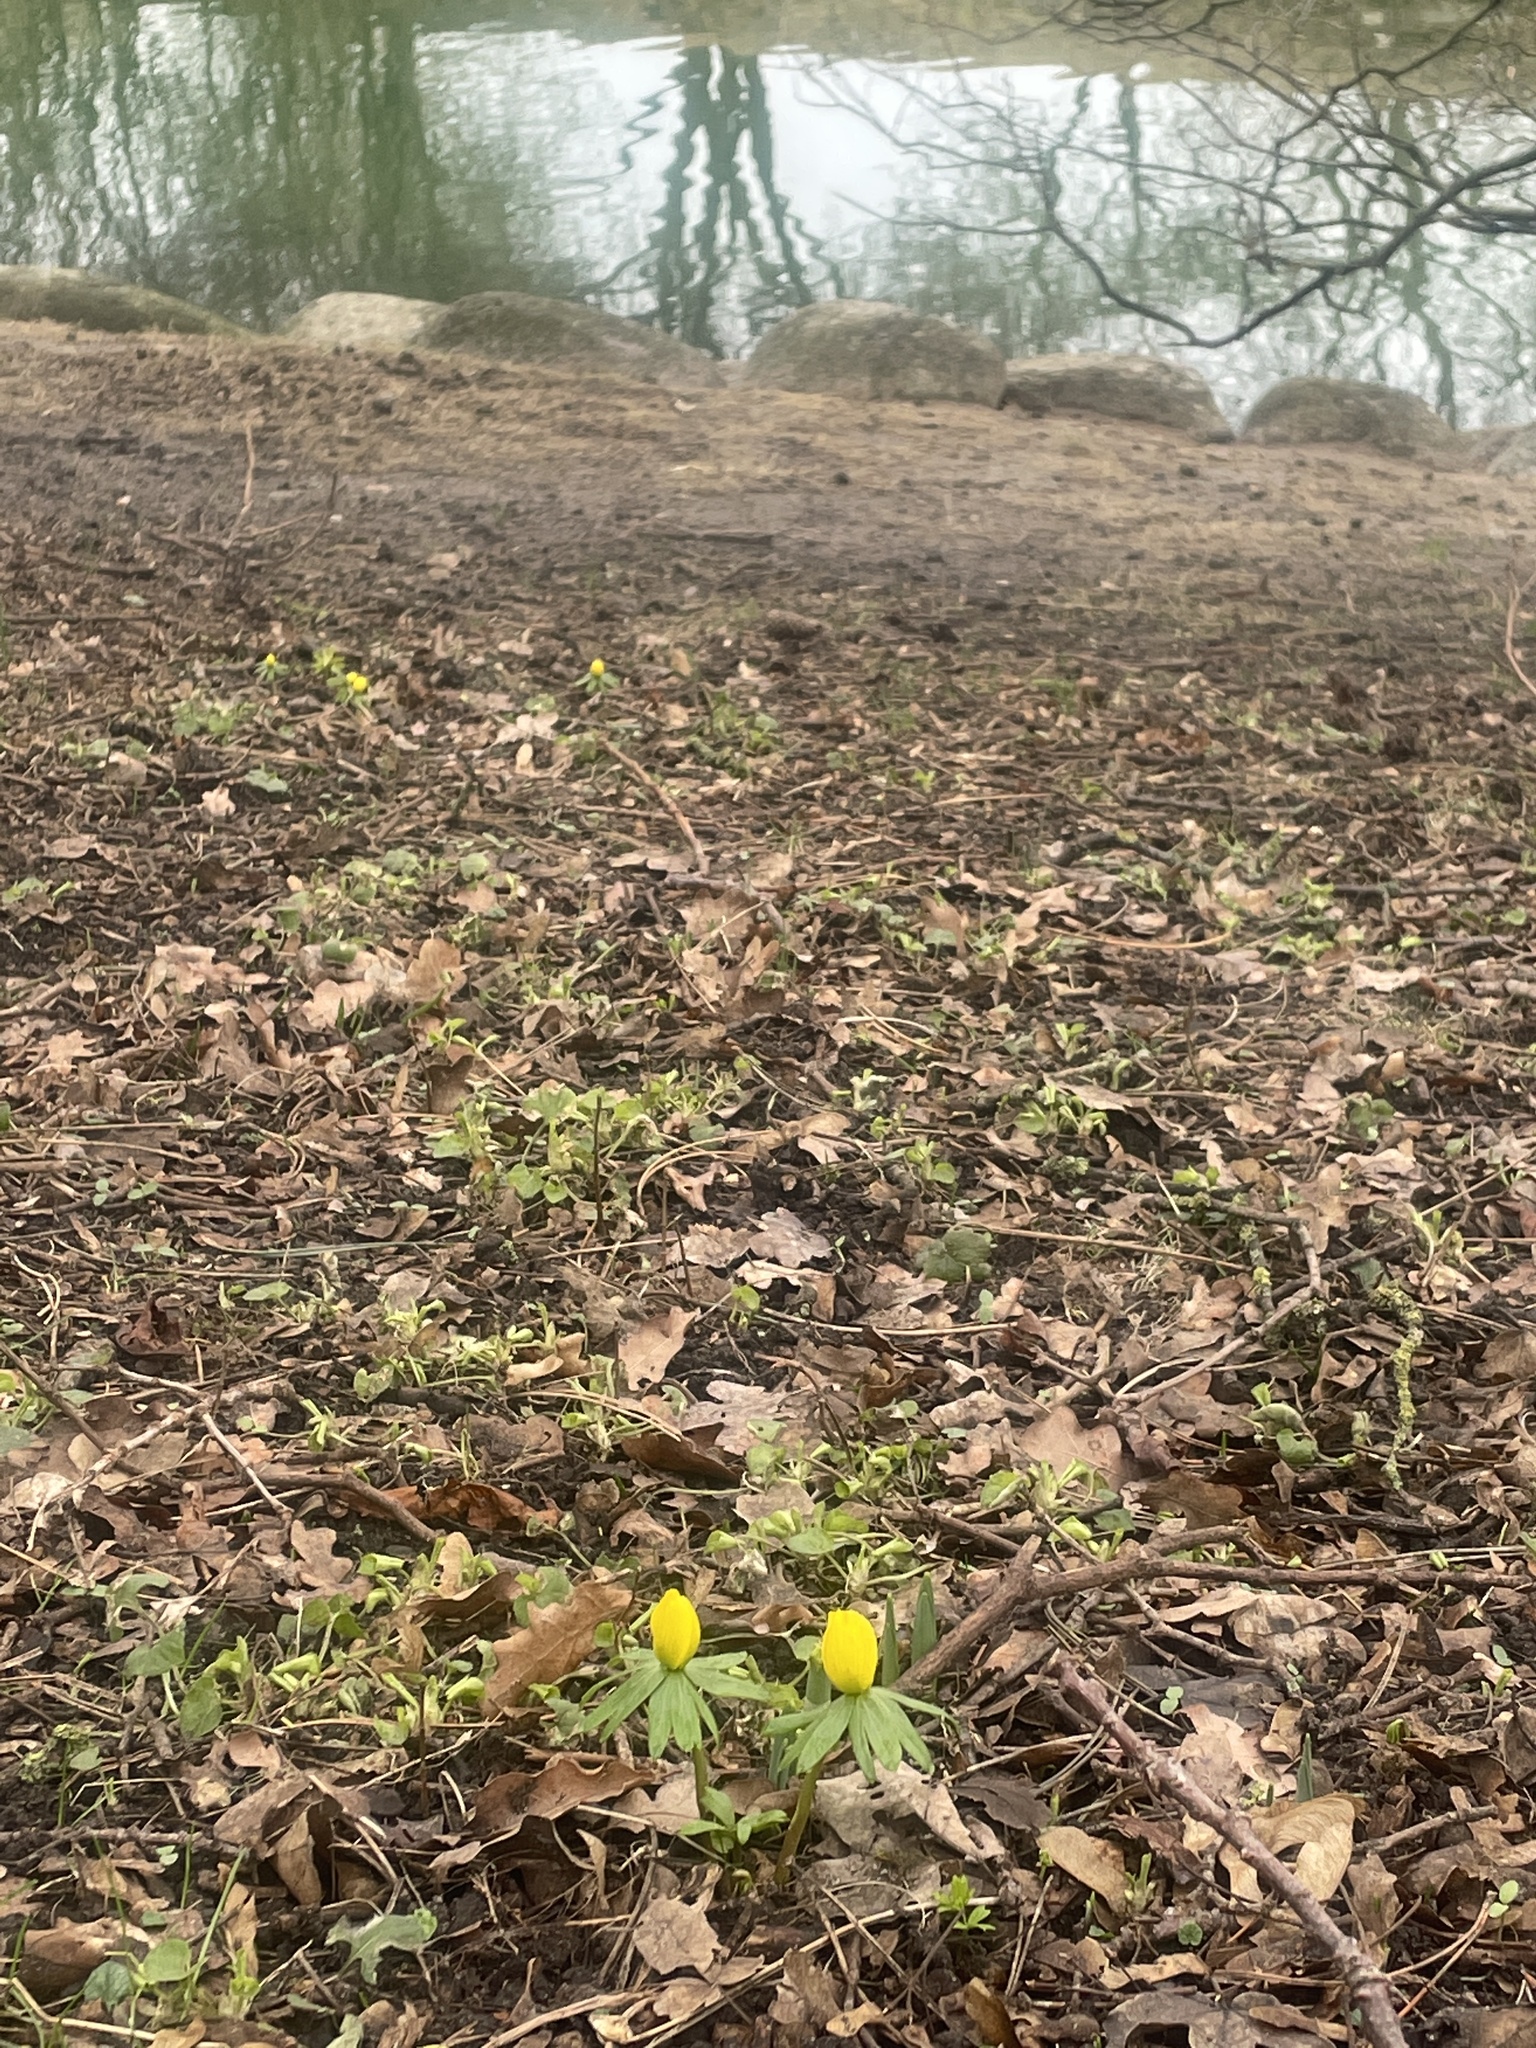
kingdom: Plantae
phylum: Tracheophyta
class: Magnoliopsida
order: Ranunculales
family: Ranunculaceae
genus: Eranthis
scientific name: Eranthis hyemalis
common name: Winter aconite
